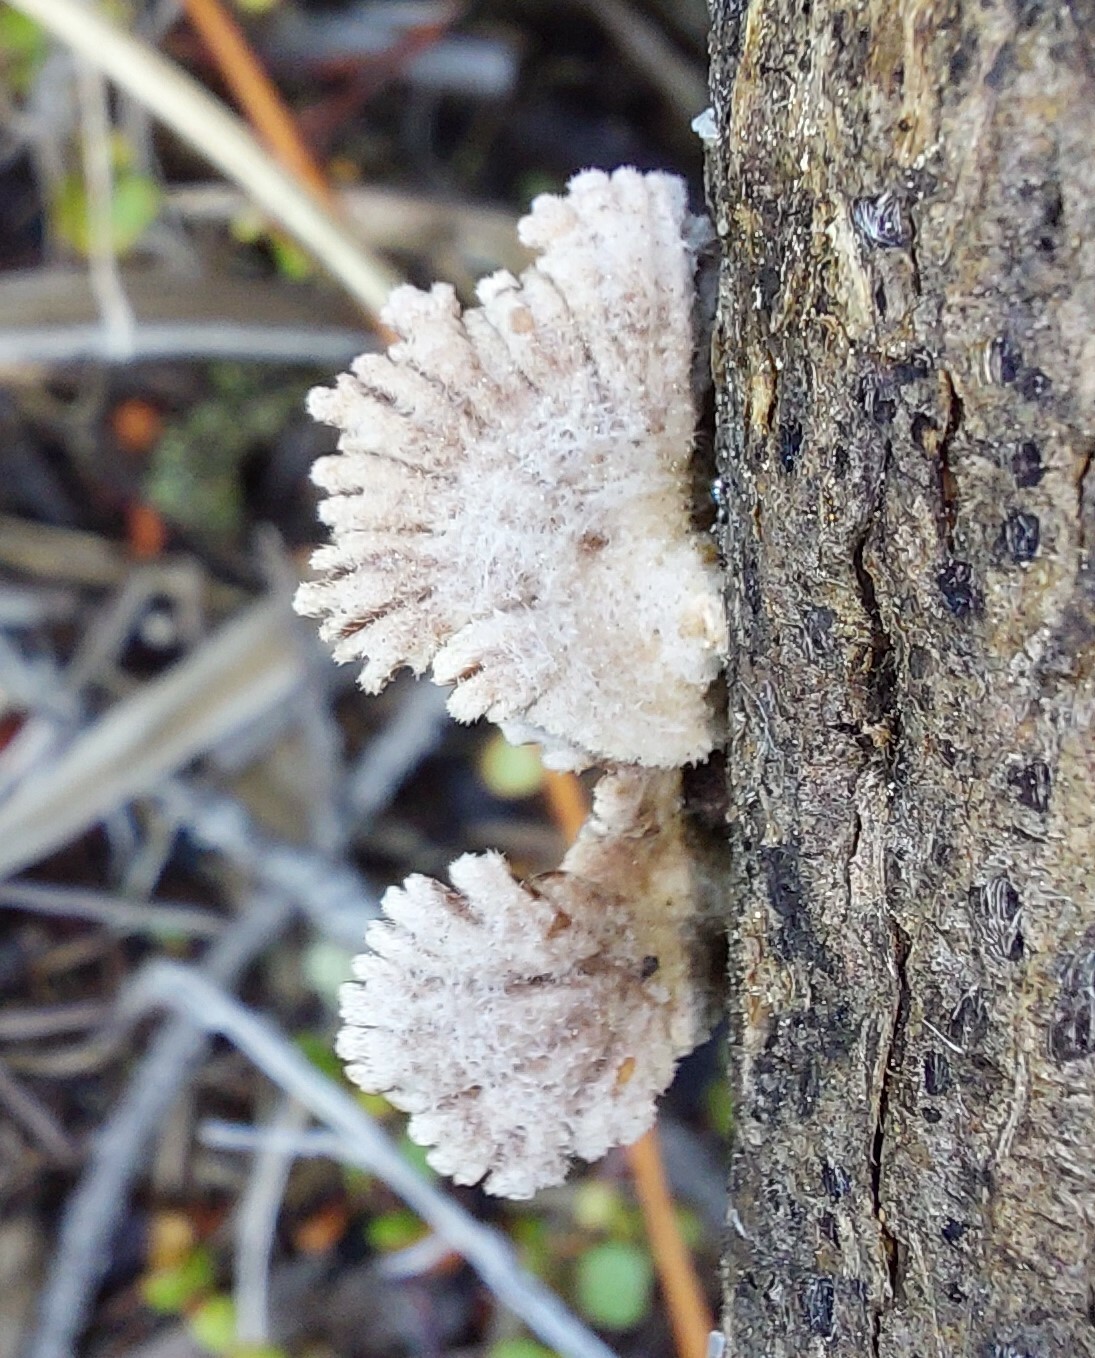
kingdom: Fungi
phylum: Basidiomycota
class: Agaricomycetes
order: Agaricales
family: Schizophyllaceae
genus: Schizophyllum
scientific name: Schizophyllum commune
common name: Common porecrust
